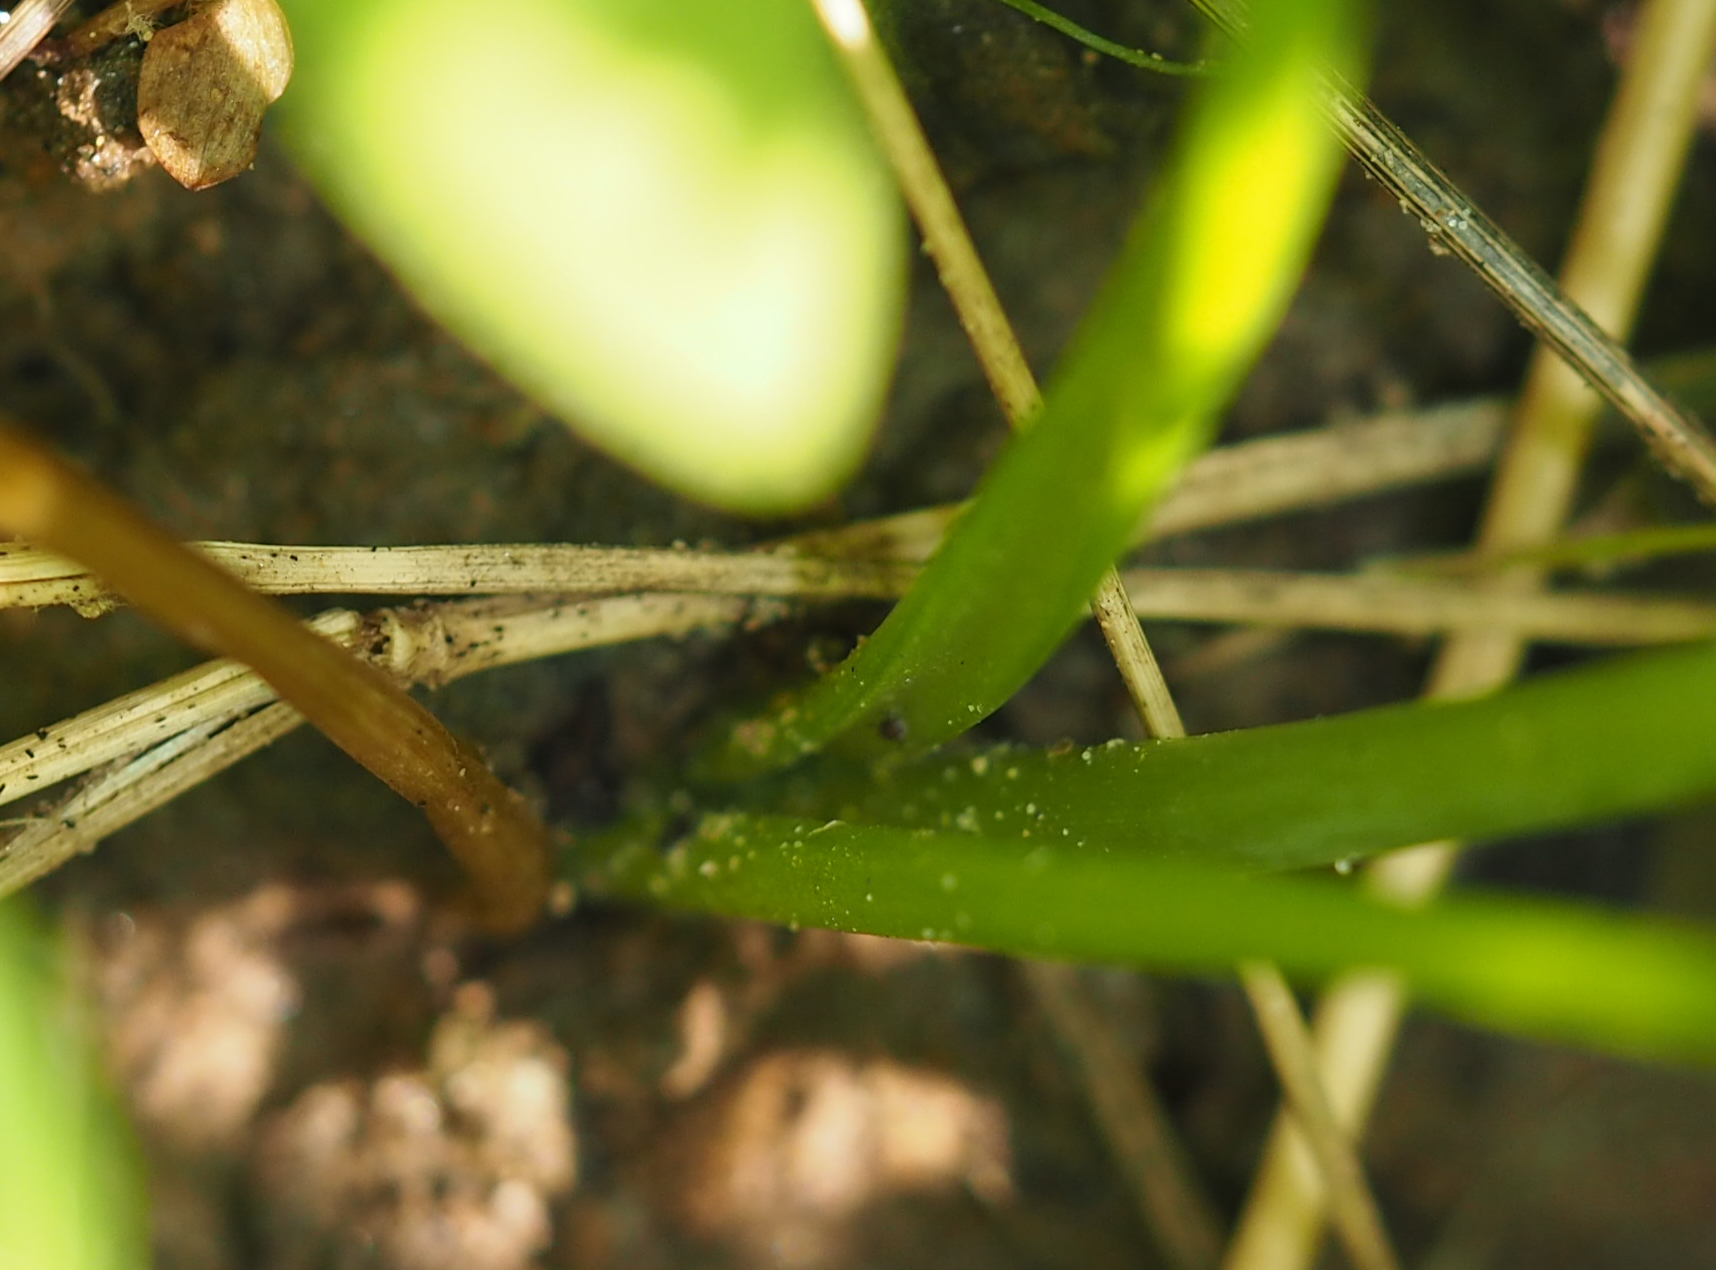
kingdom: Plantae
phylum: Tracheophyta
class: Liliopsida
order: Asparagales
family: Amaryllidaceae
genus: Allium
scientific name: Allium canadense
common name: Meadow garlic
